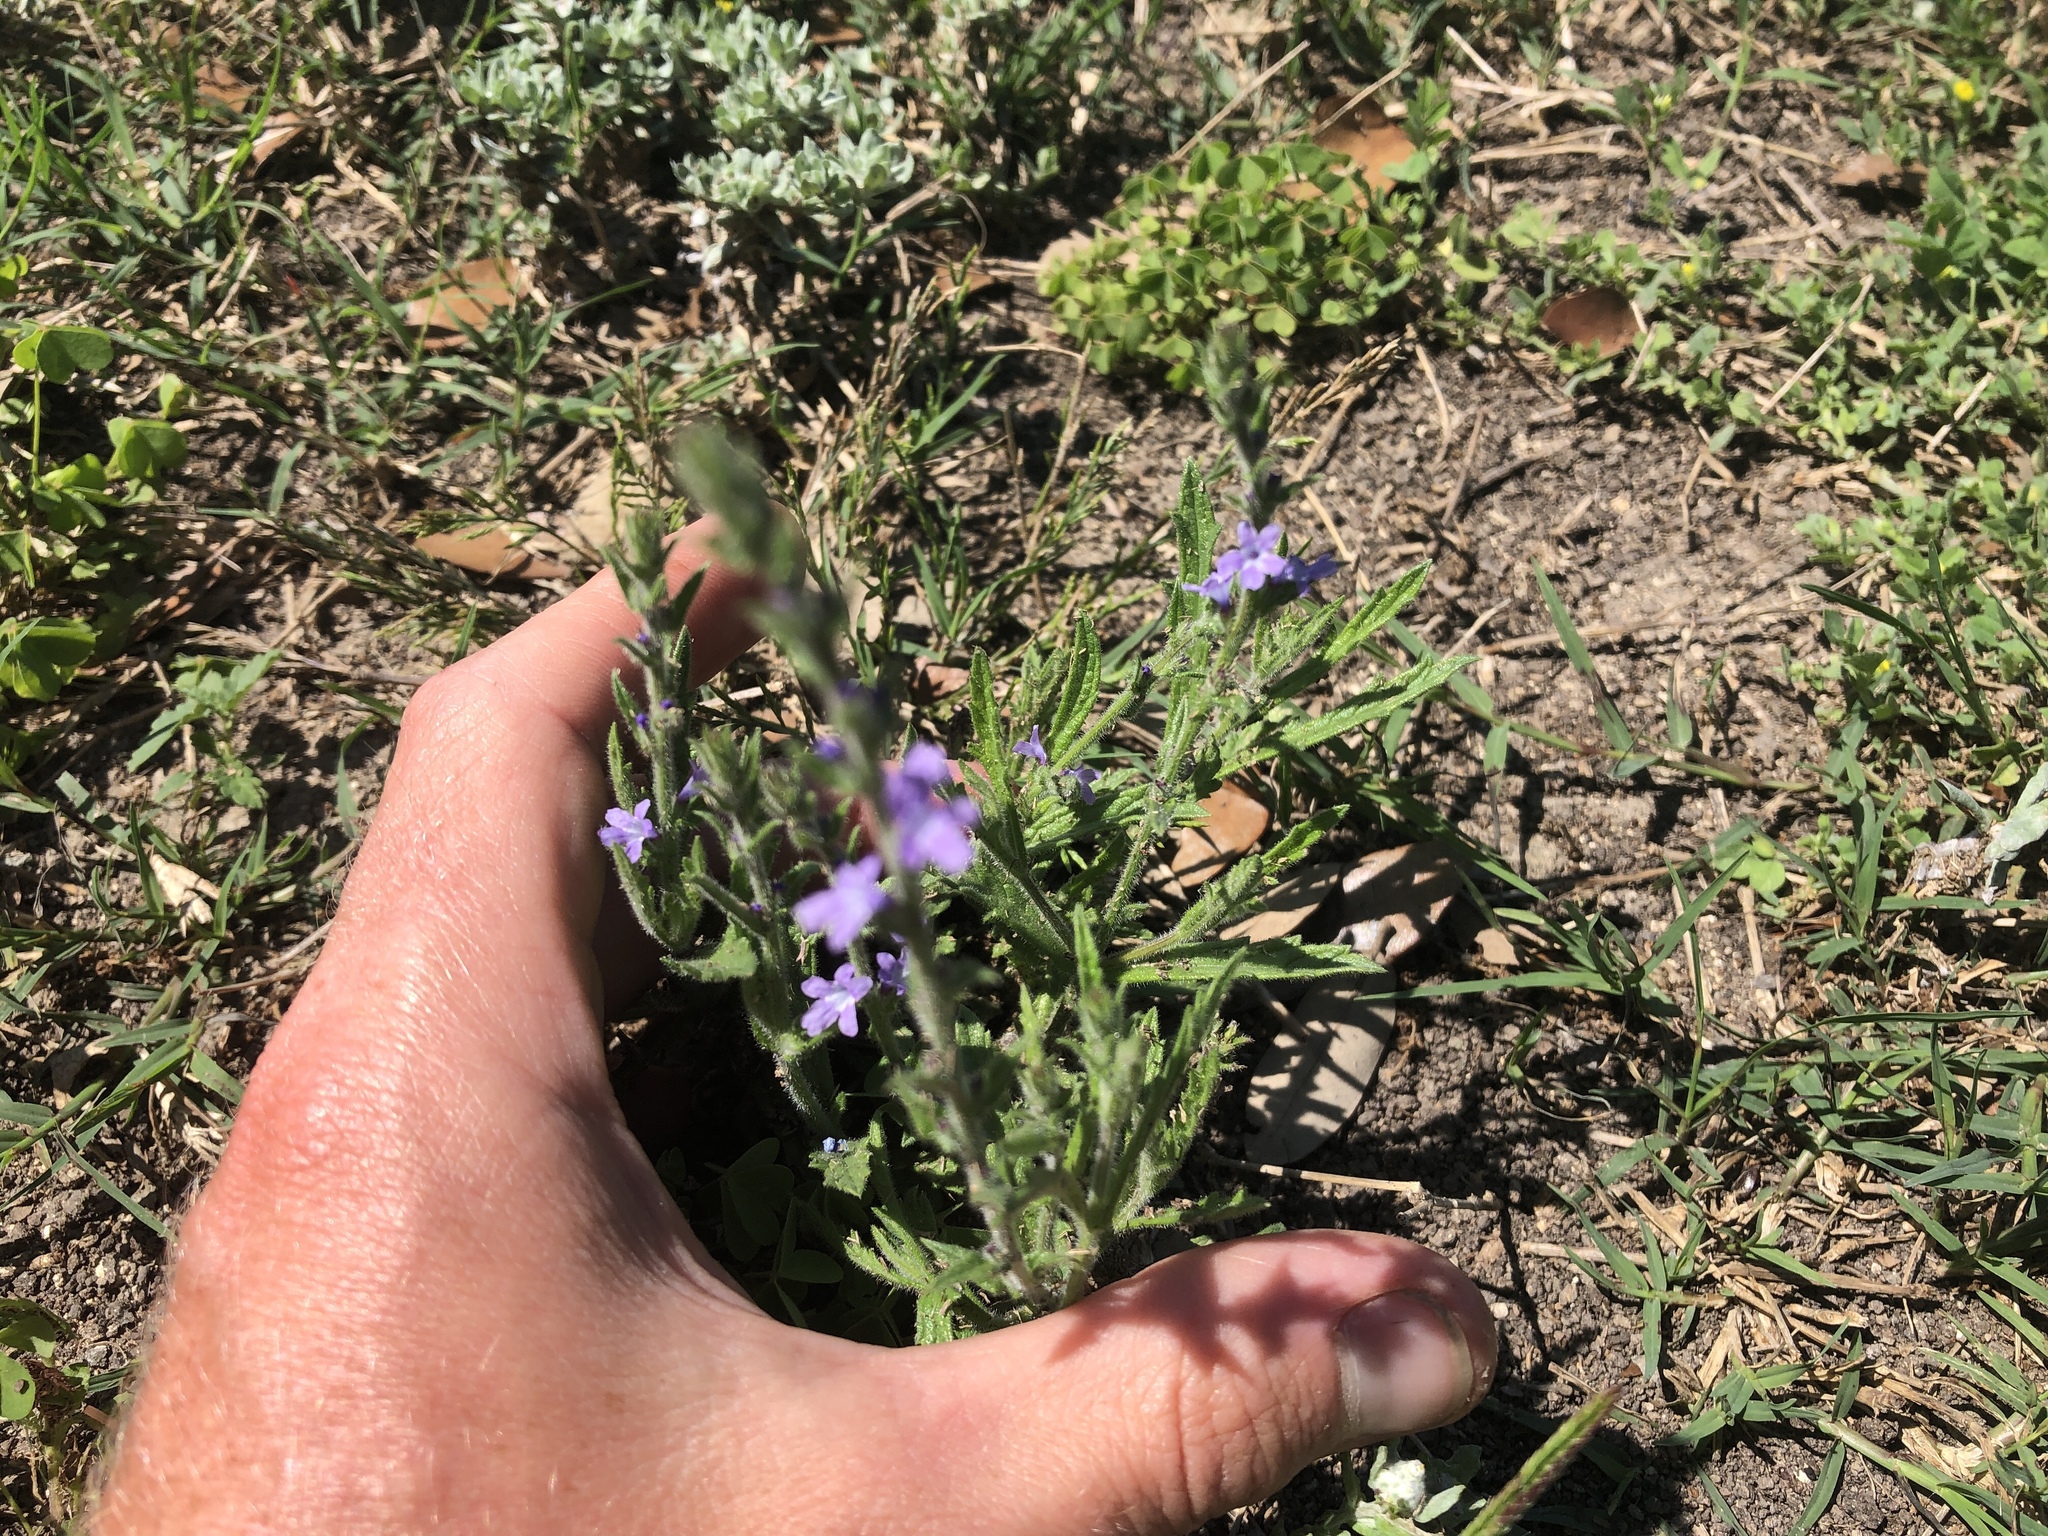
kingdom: Plantae
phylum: Tracheophyta
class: Magnoliopsida
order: Lamiales
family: Verbenaceae
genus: Verbena
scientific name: Verbena canescens
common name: Gray vervain
